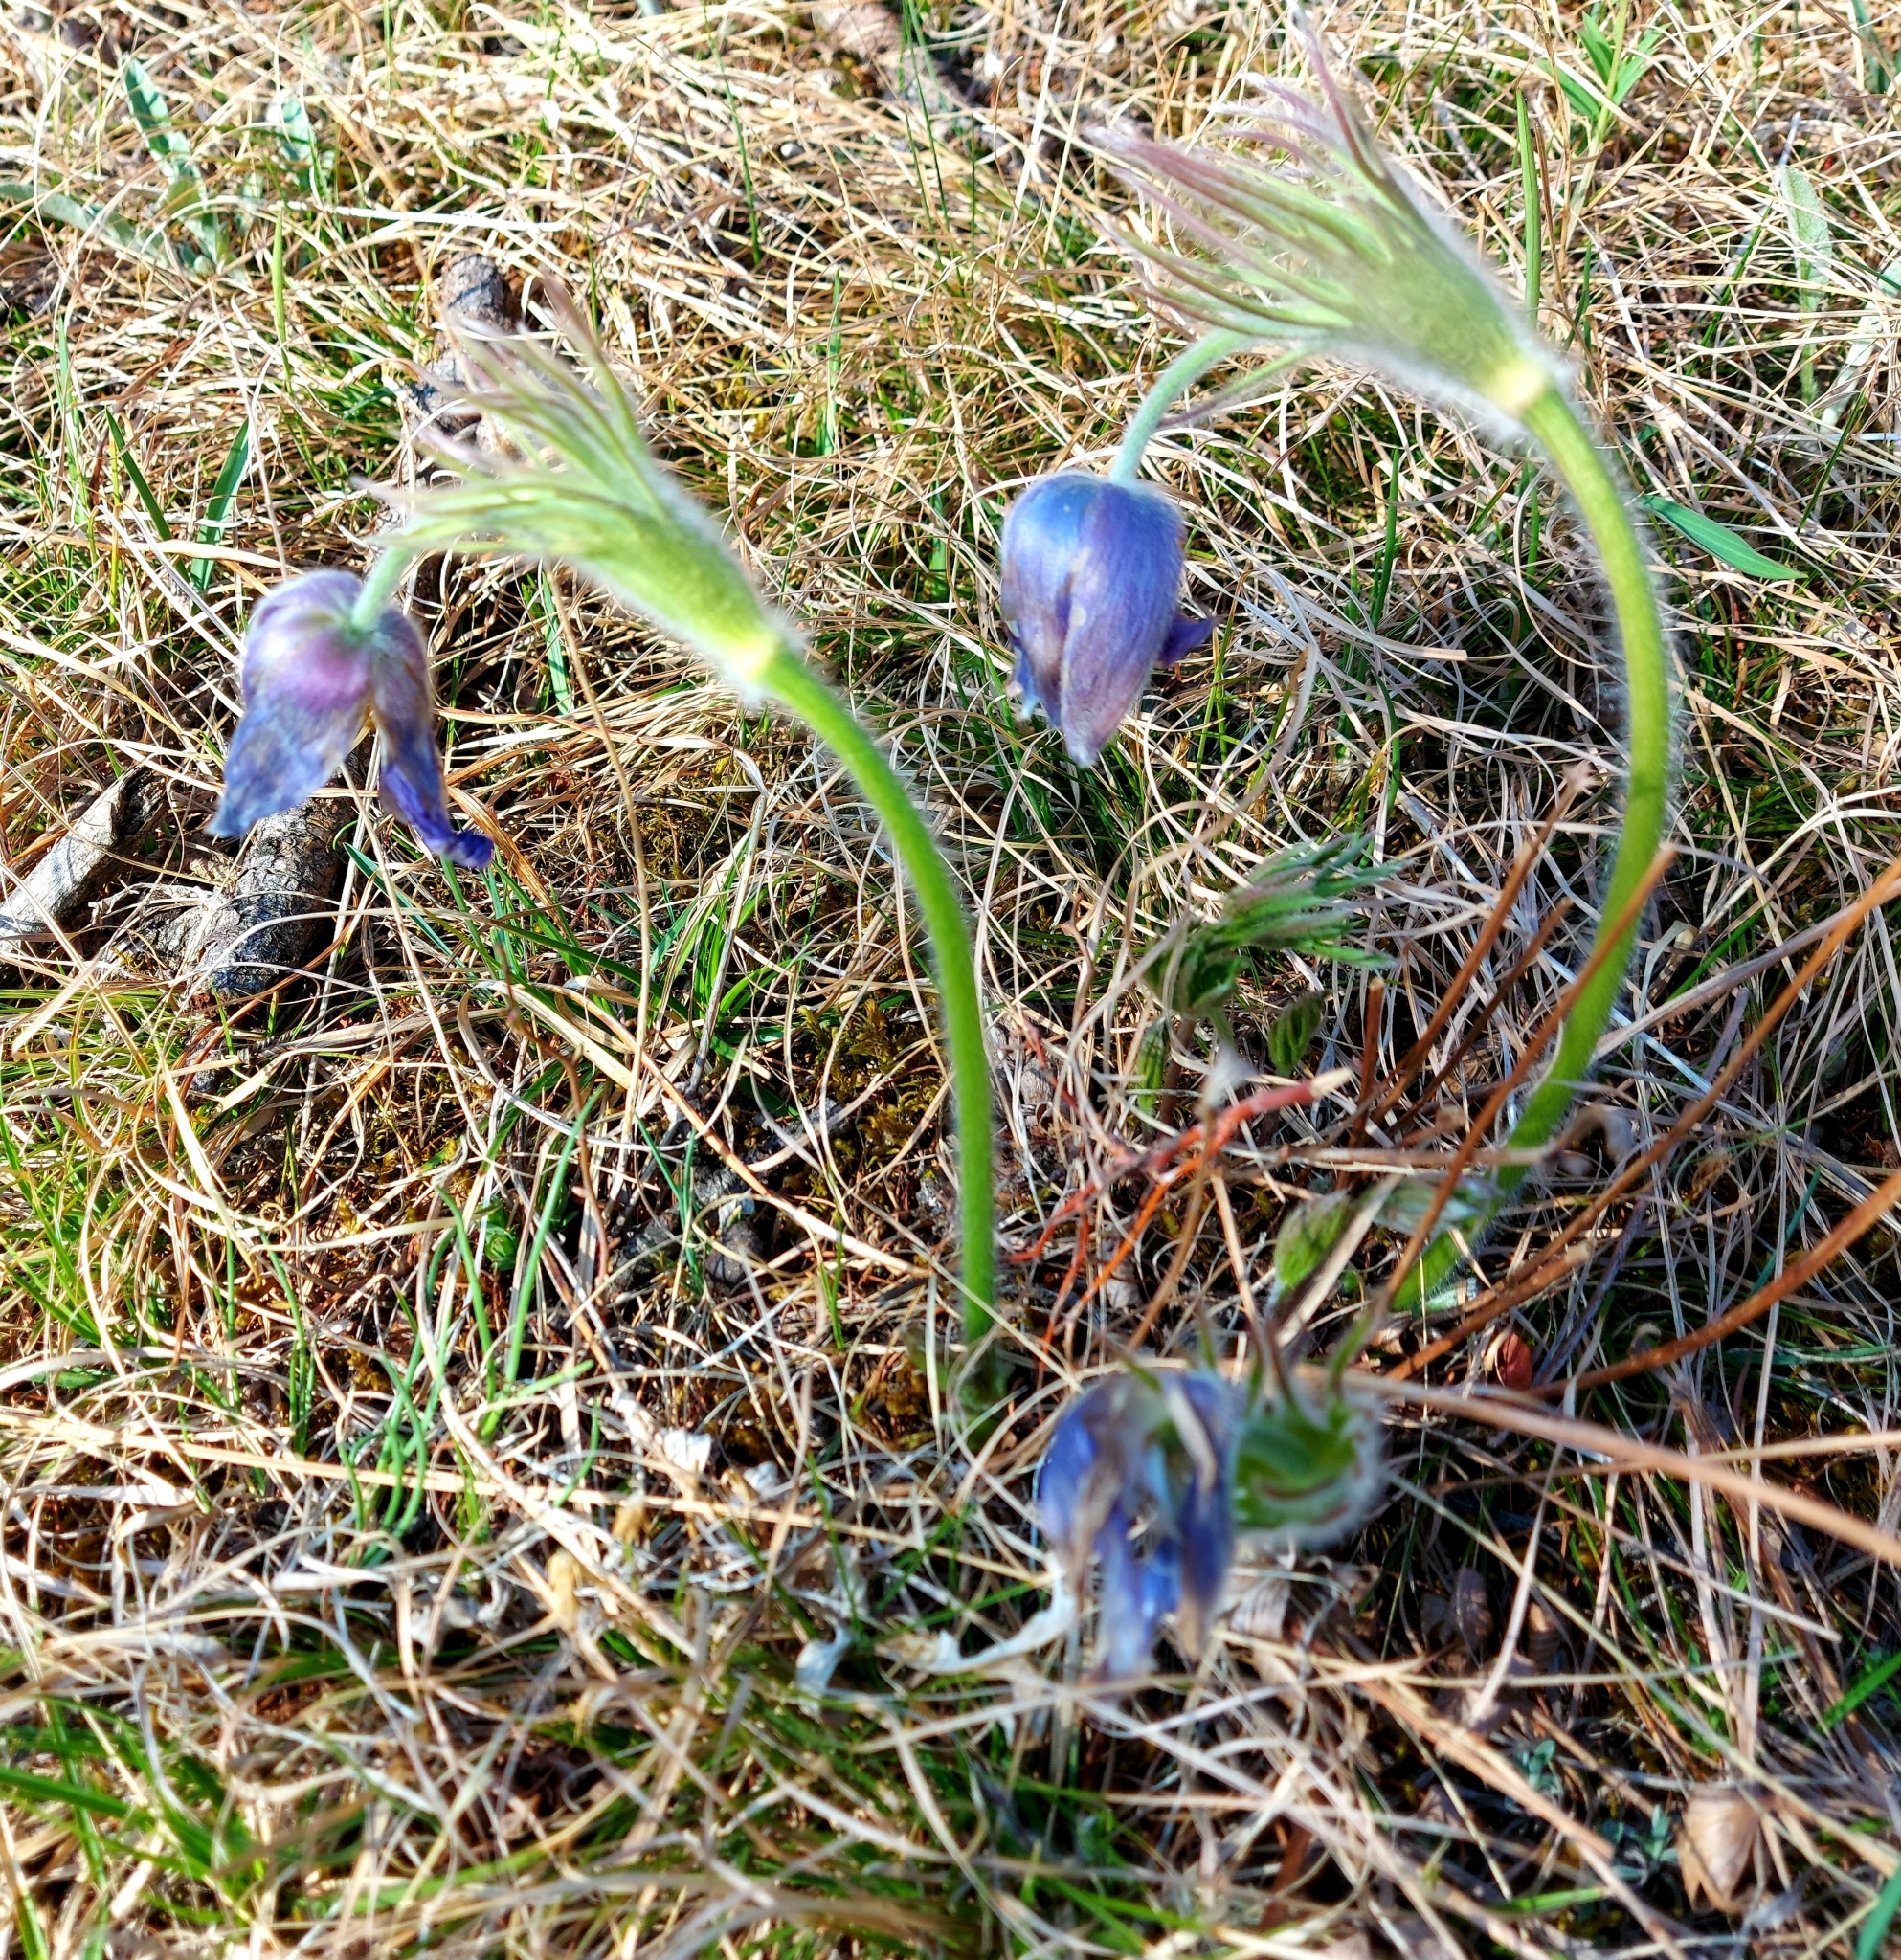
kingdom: Plantae
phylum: Tracheophyta
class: Magnoliopsida
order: Ranunculales
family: Ranunculaceae
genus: Pulsatilla
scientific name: Pulsatilla patens
